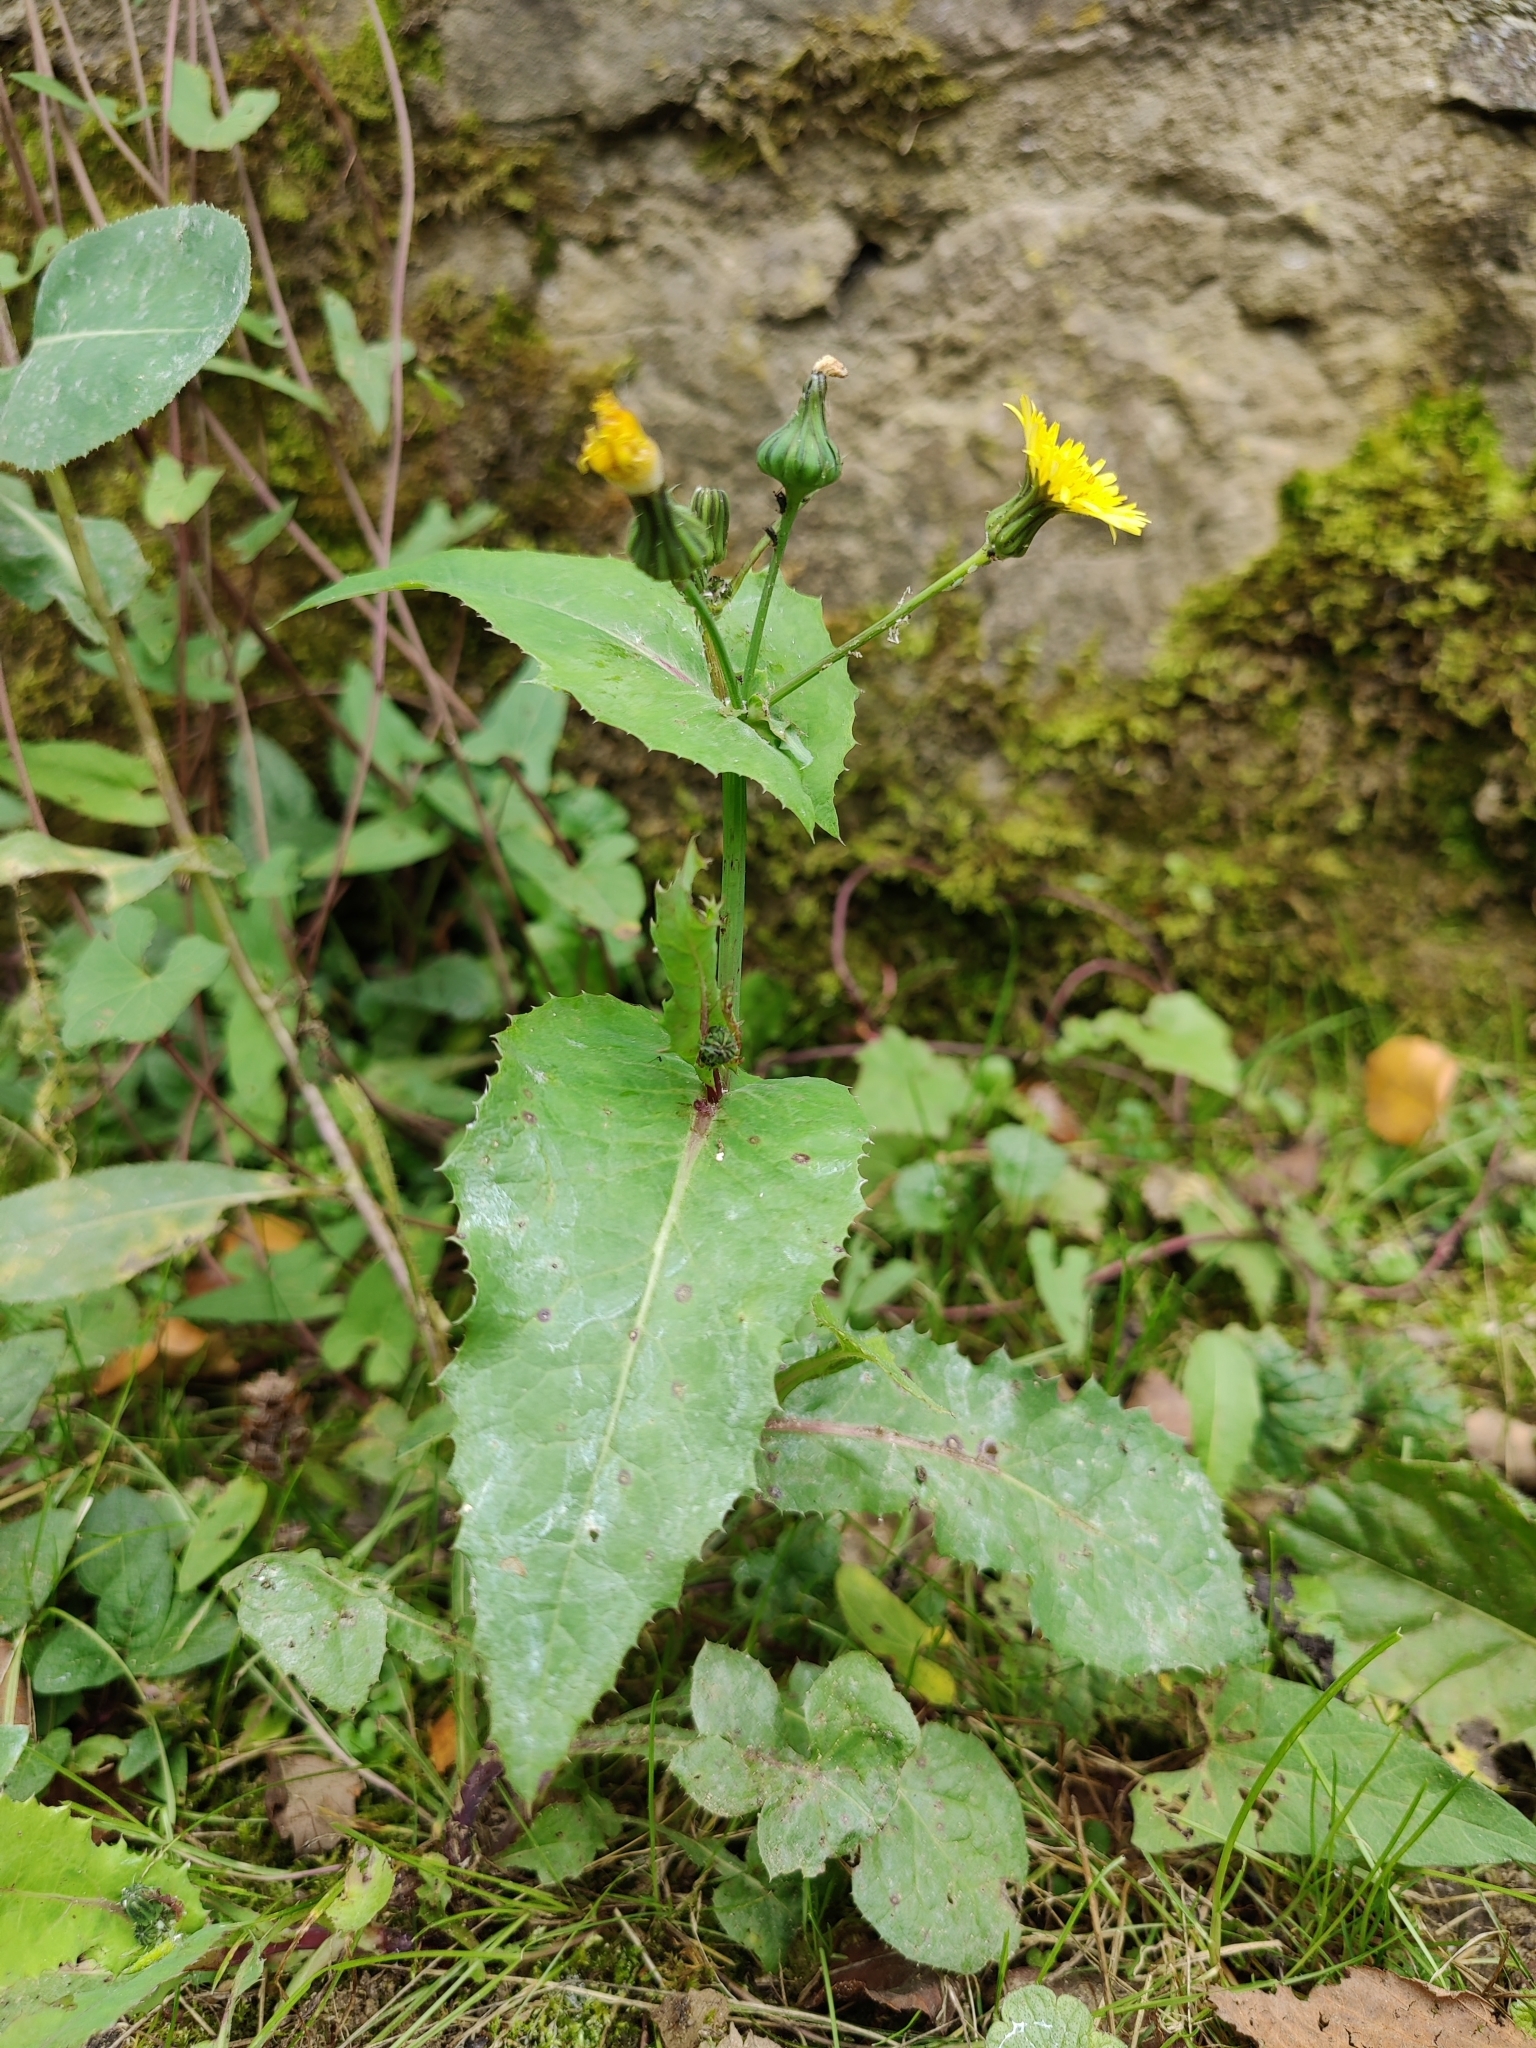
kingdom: Plantae
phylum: Tracheophyta
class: Magnoliopsida
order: Asterales
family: Asteraceae
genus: Sonchus
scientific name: Sonchus oleraceus
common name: Common sowthistle
